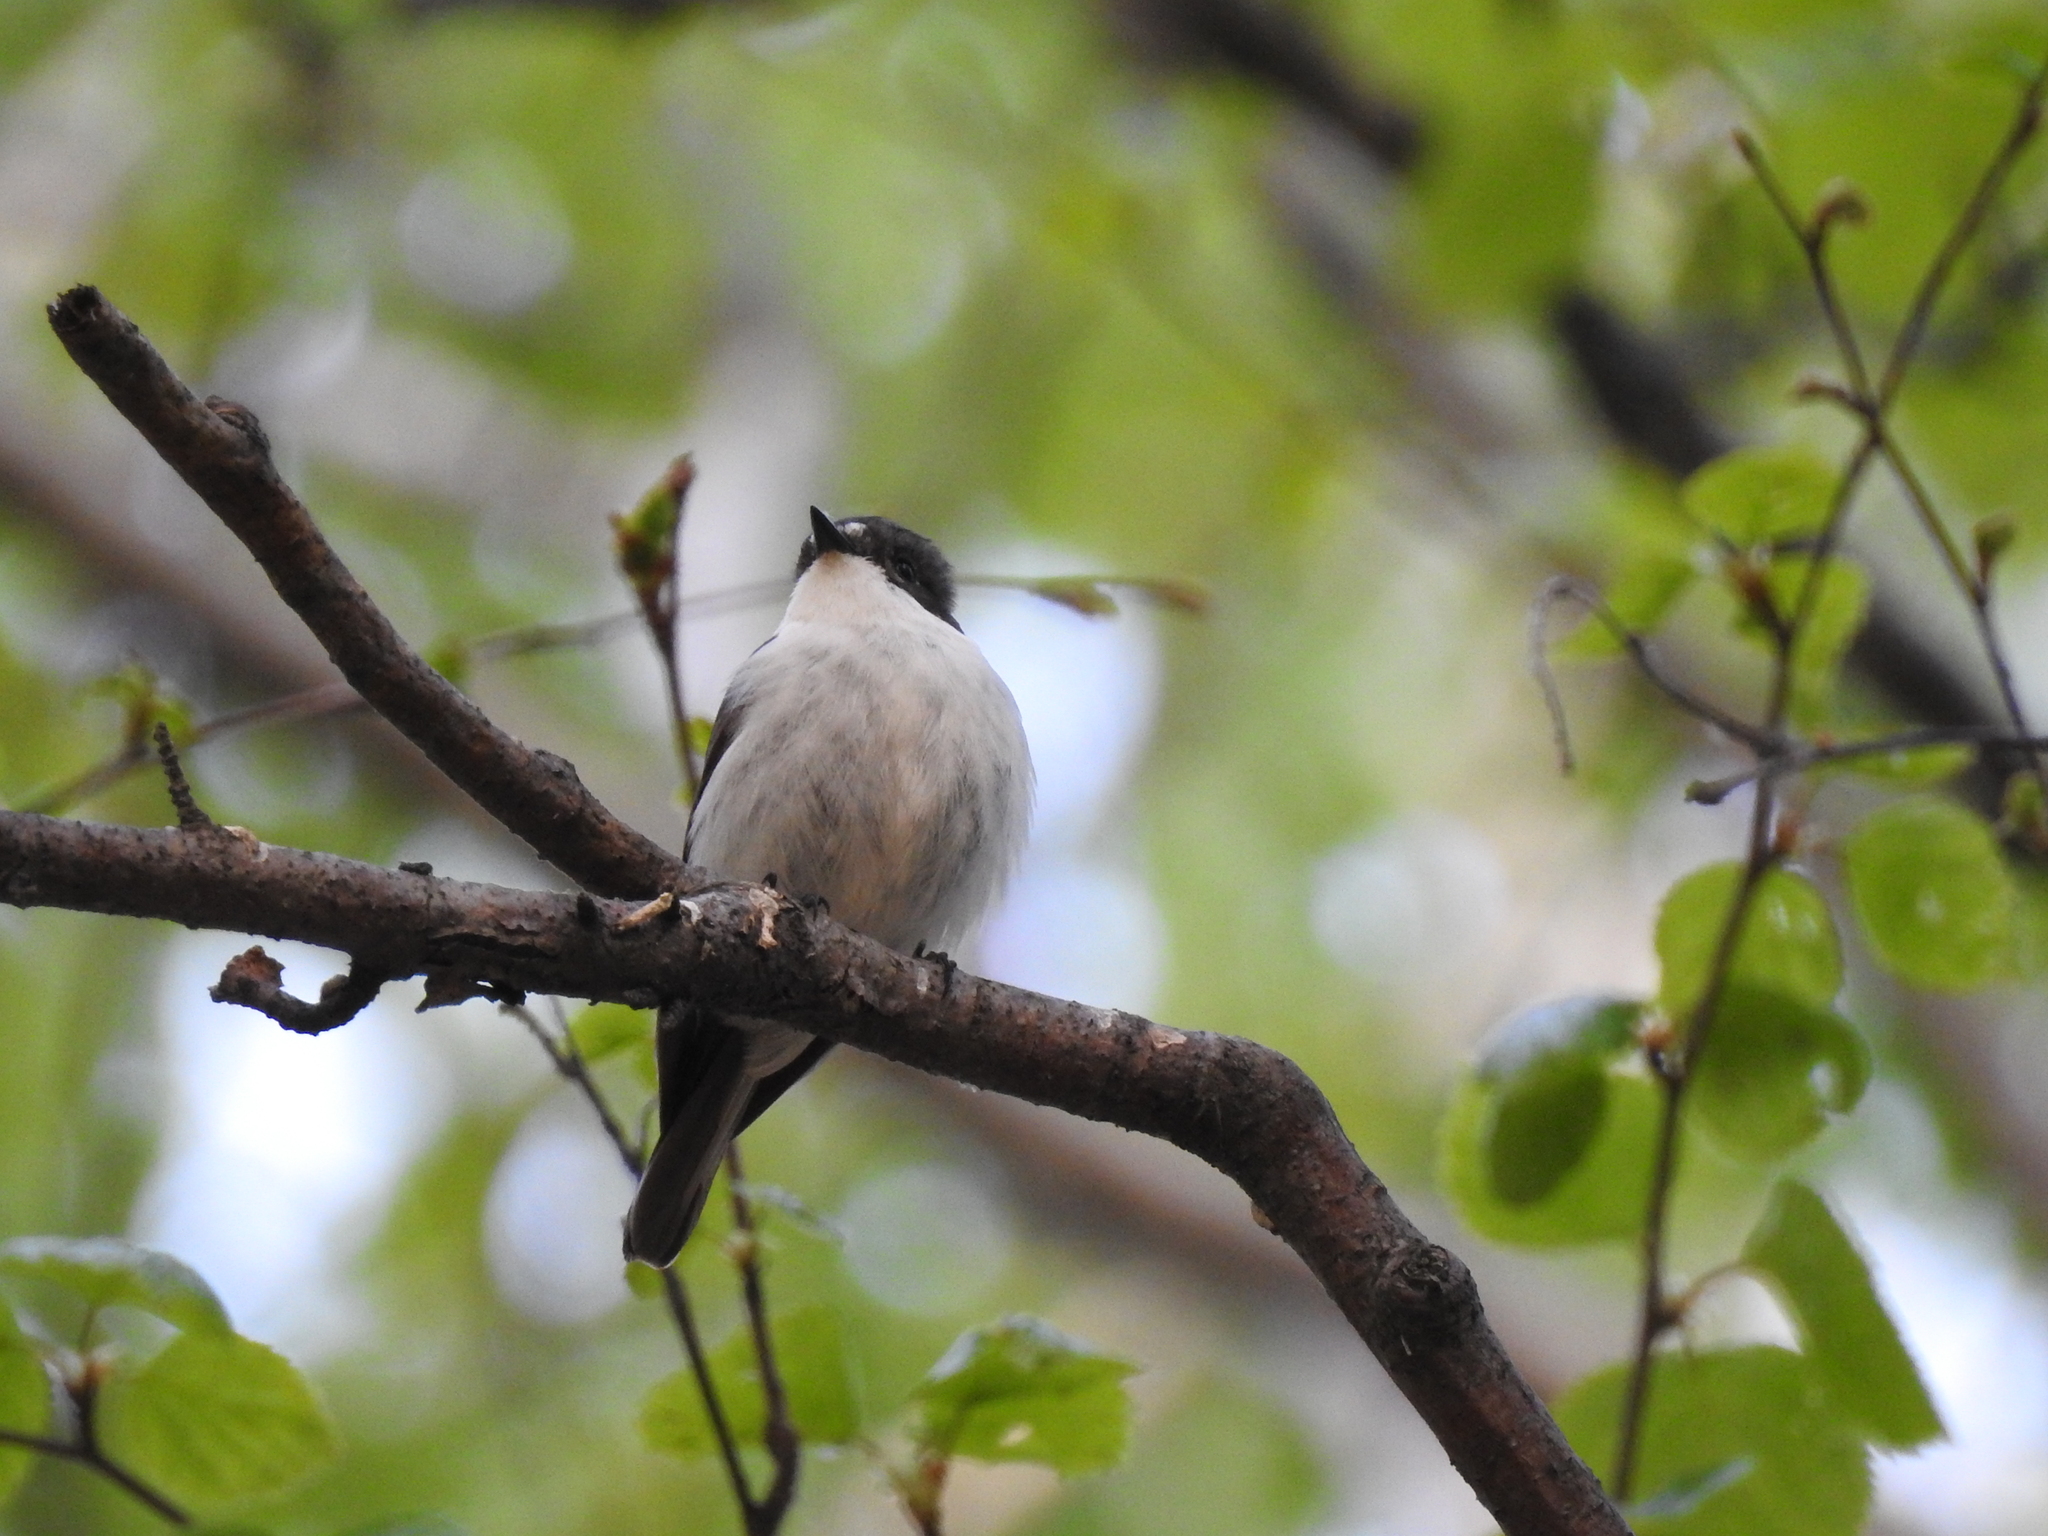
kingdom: Animalia
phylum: Chordata
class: Aves
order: Passeriformes
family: Muscicapidae
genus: Ficedula
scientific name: Ficedula hypoleuca
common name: European pied flycatcher
